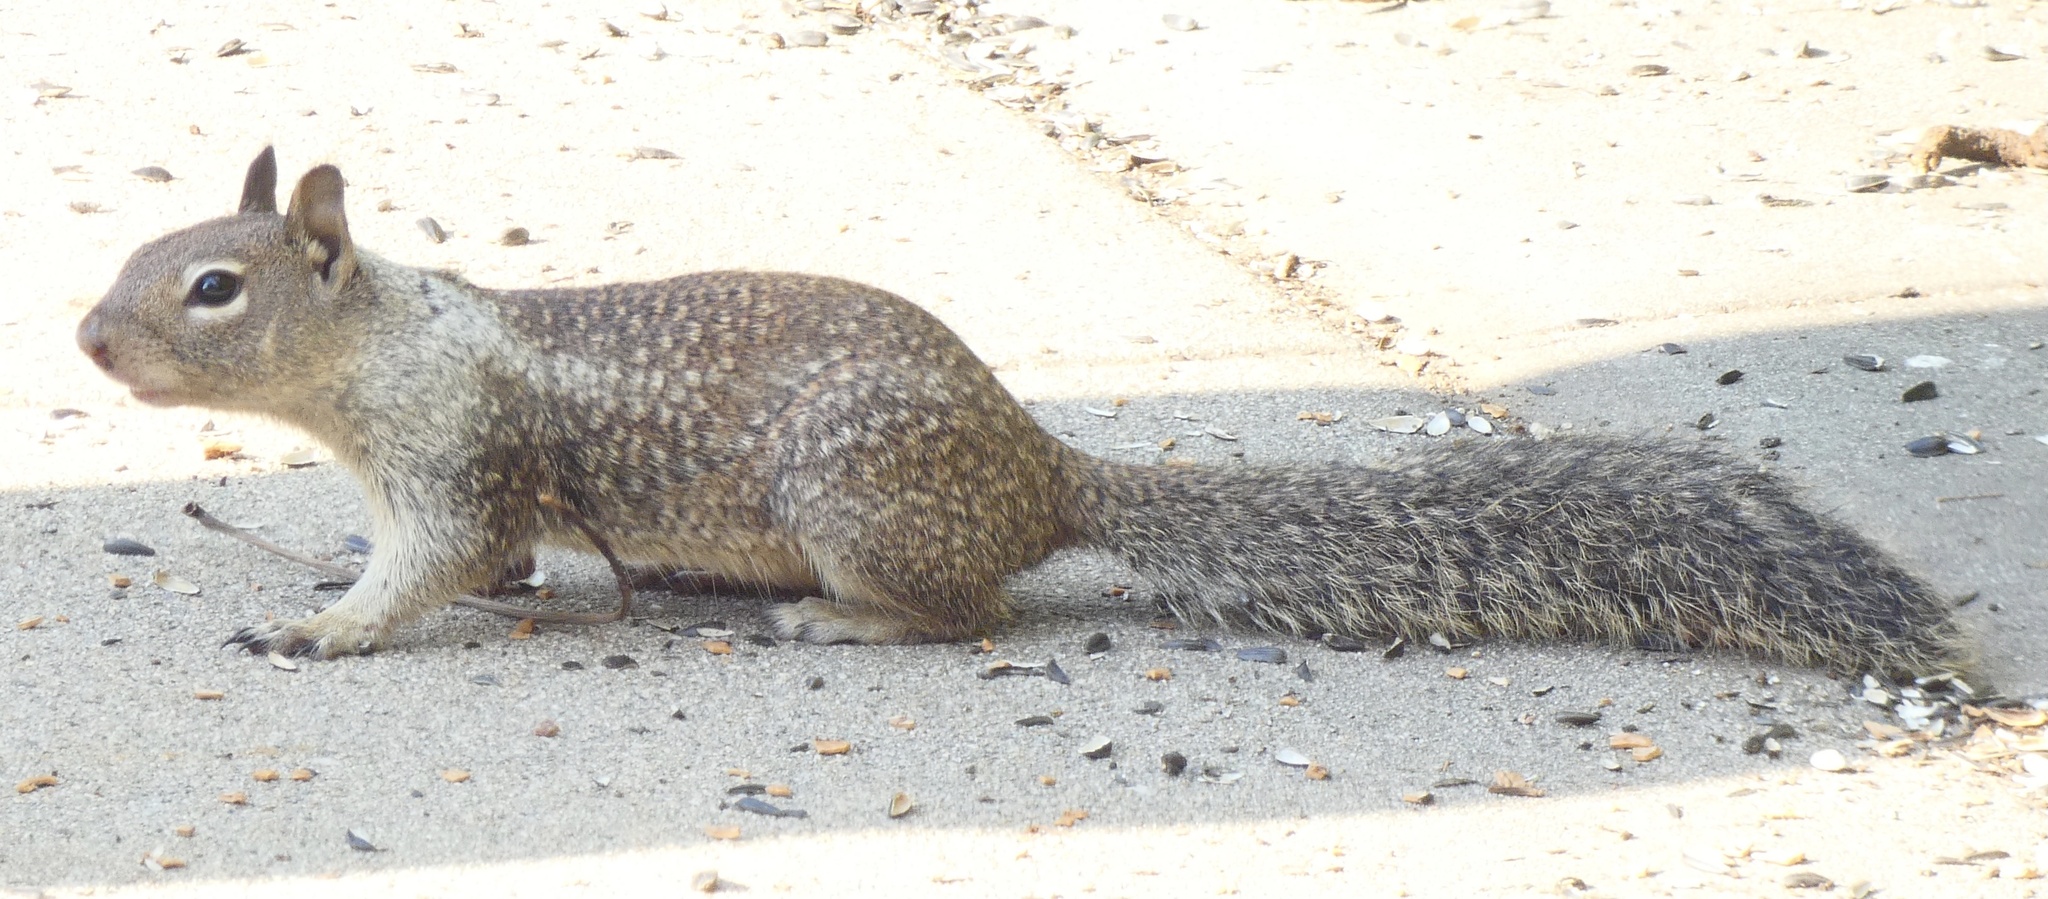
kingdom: Animalia
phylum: Chordata
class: Mammalia
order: Rodentia
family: Sciuridae
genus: Otospermophilus
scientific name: Otospermophilus beecheyi
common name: California ground squirrel
